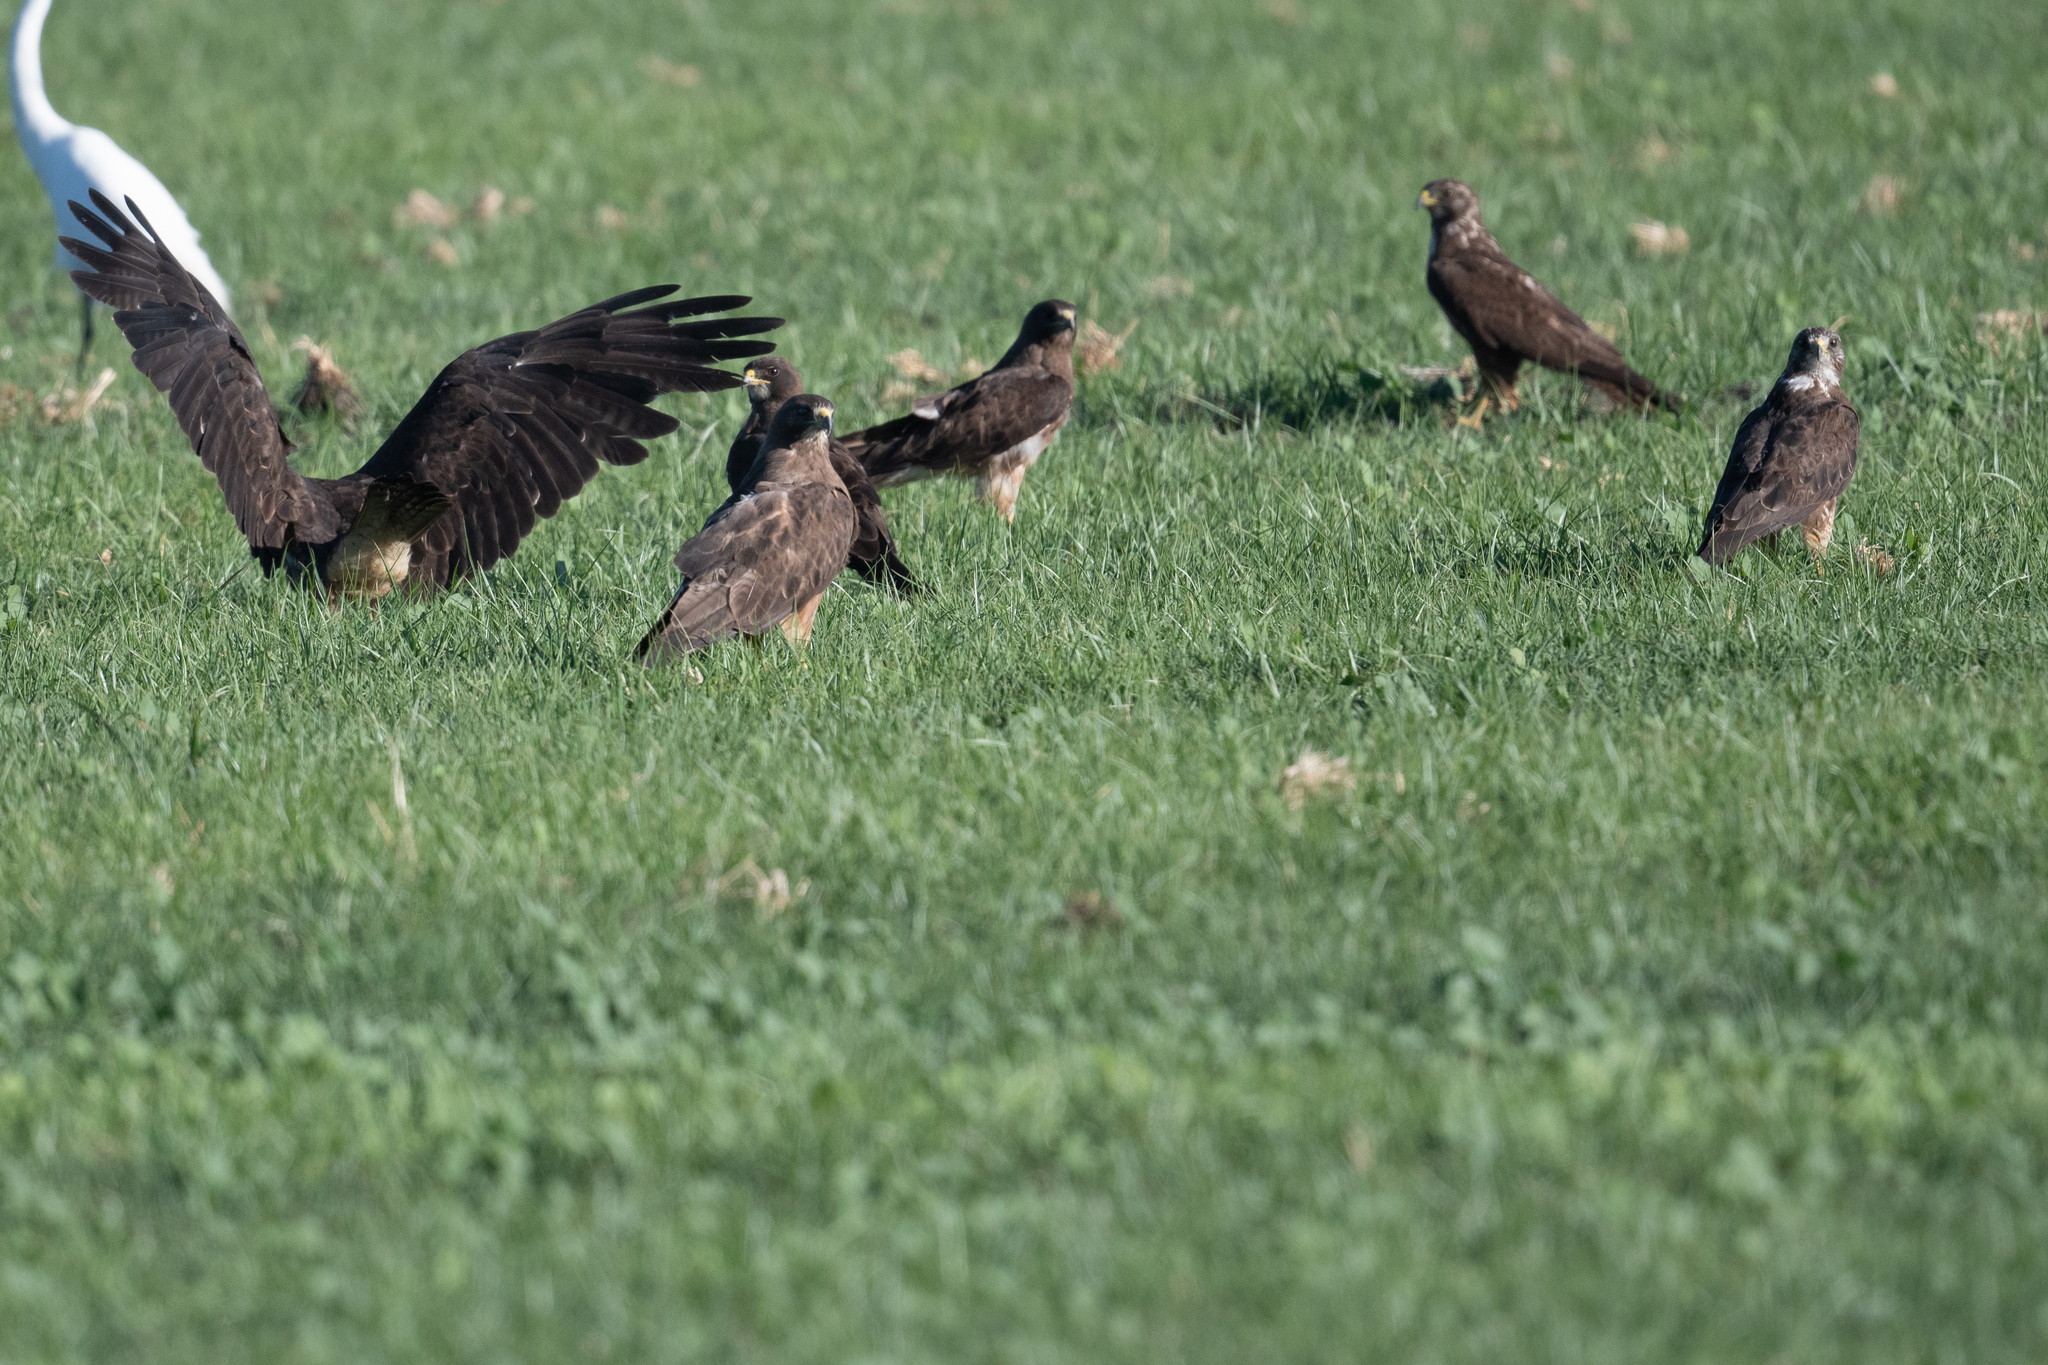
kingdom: Animalia
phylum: Chordata
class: Aves
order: Accipitriformes
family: Accipitridae
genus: Buteo
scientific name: Buteo swainsoni
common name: Swainson's hawk
